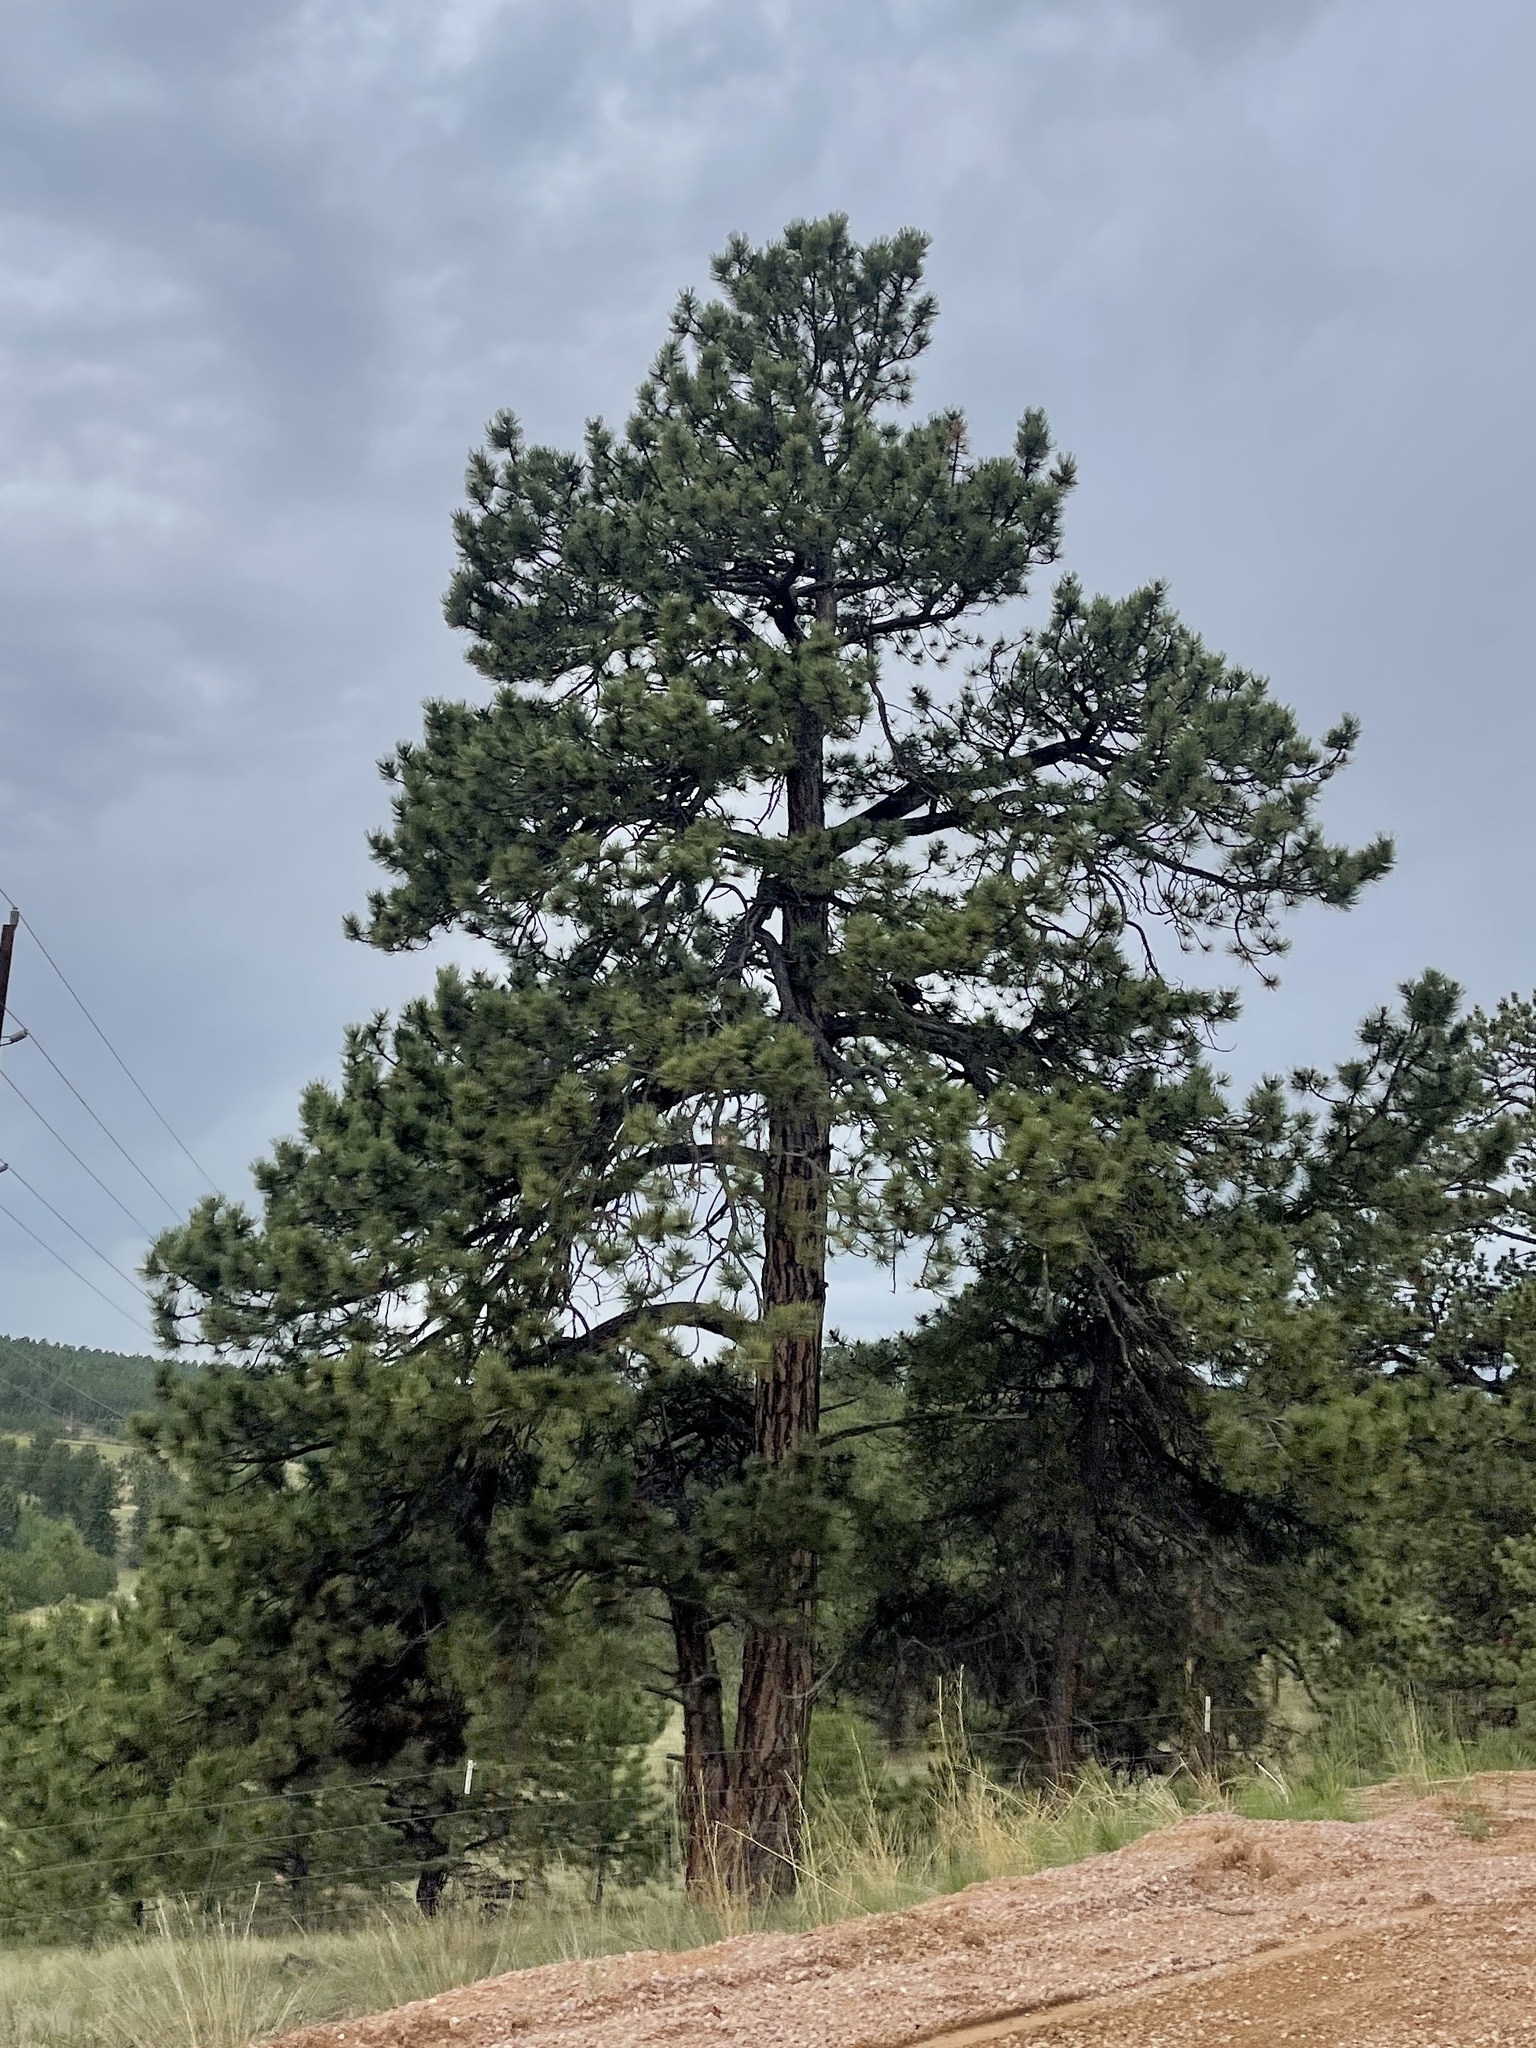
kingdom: Plantae
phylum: Tracheophyta
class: Pinopsida
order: Pinales
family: Pinaceae
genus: Pinus
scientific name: Pinus ponderosa
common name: Western yellow-pine
